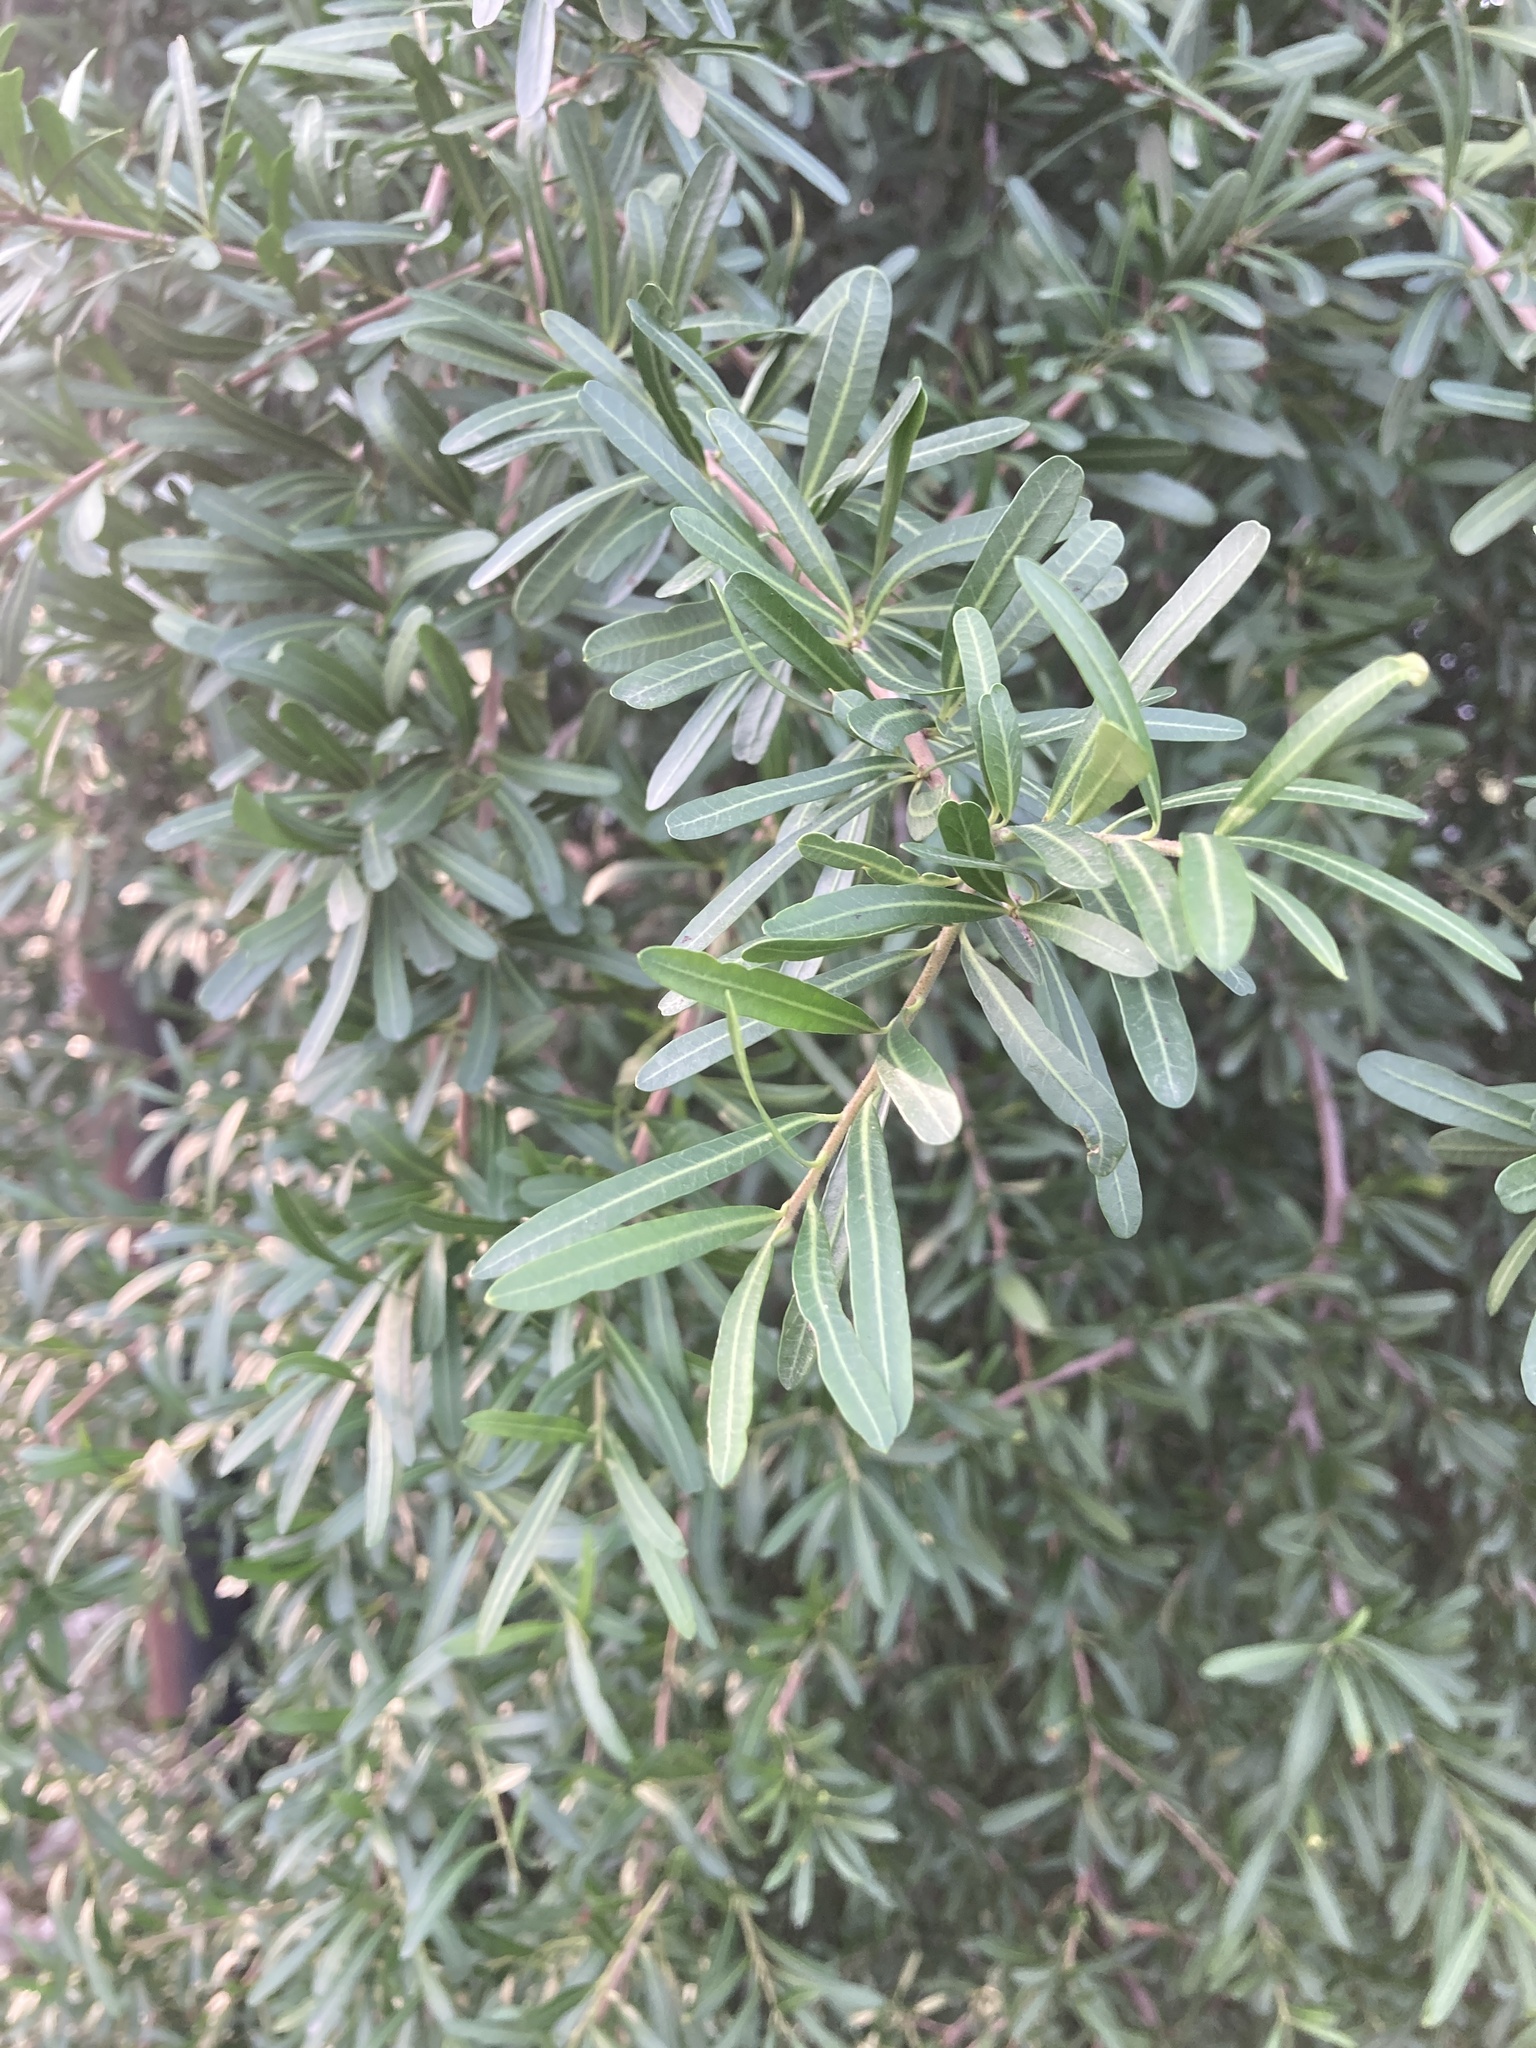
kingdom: Plantae
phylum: Tracheophyta
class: Magnoliopsida
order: Sapindales
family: Anacardiaceae
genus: Schinus
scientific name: Schinus longifolia
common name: Longleaf peppertree
